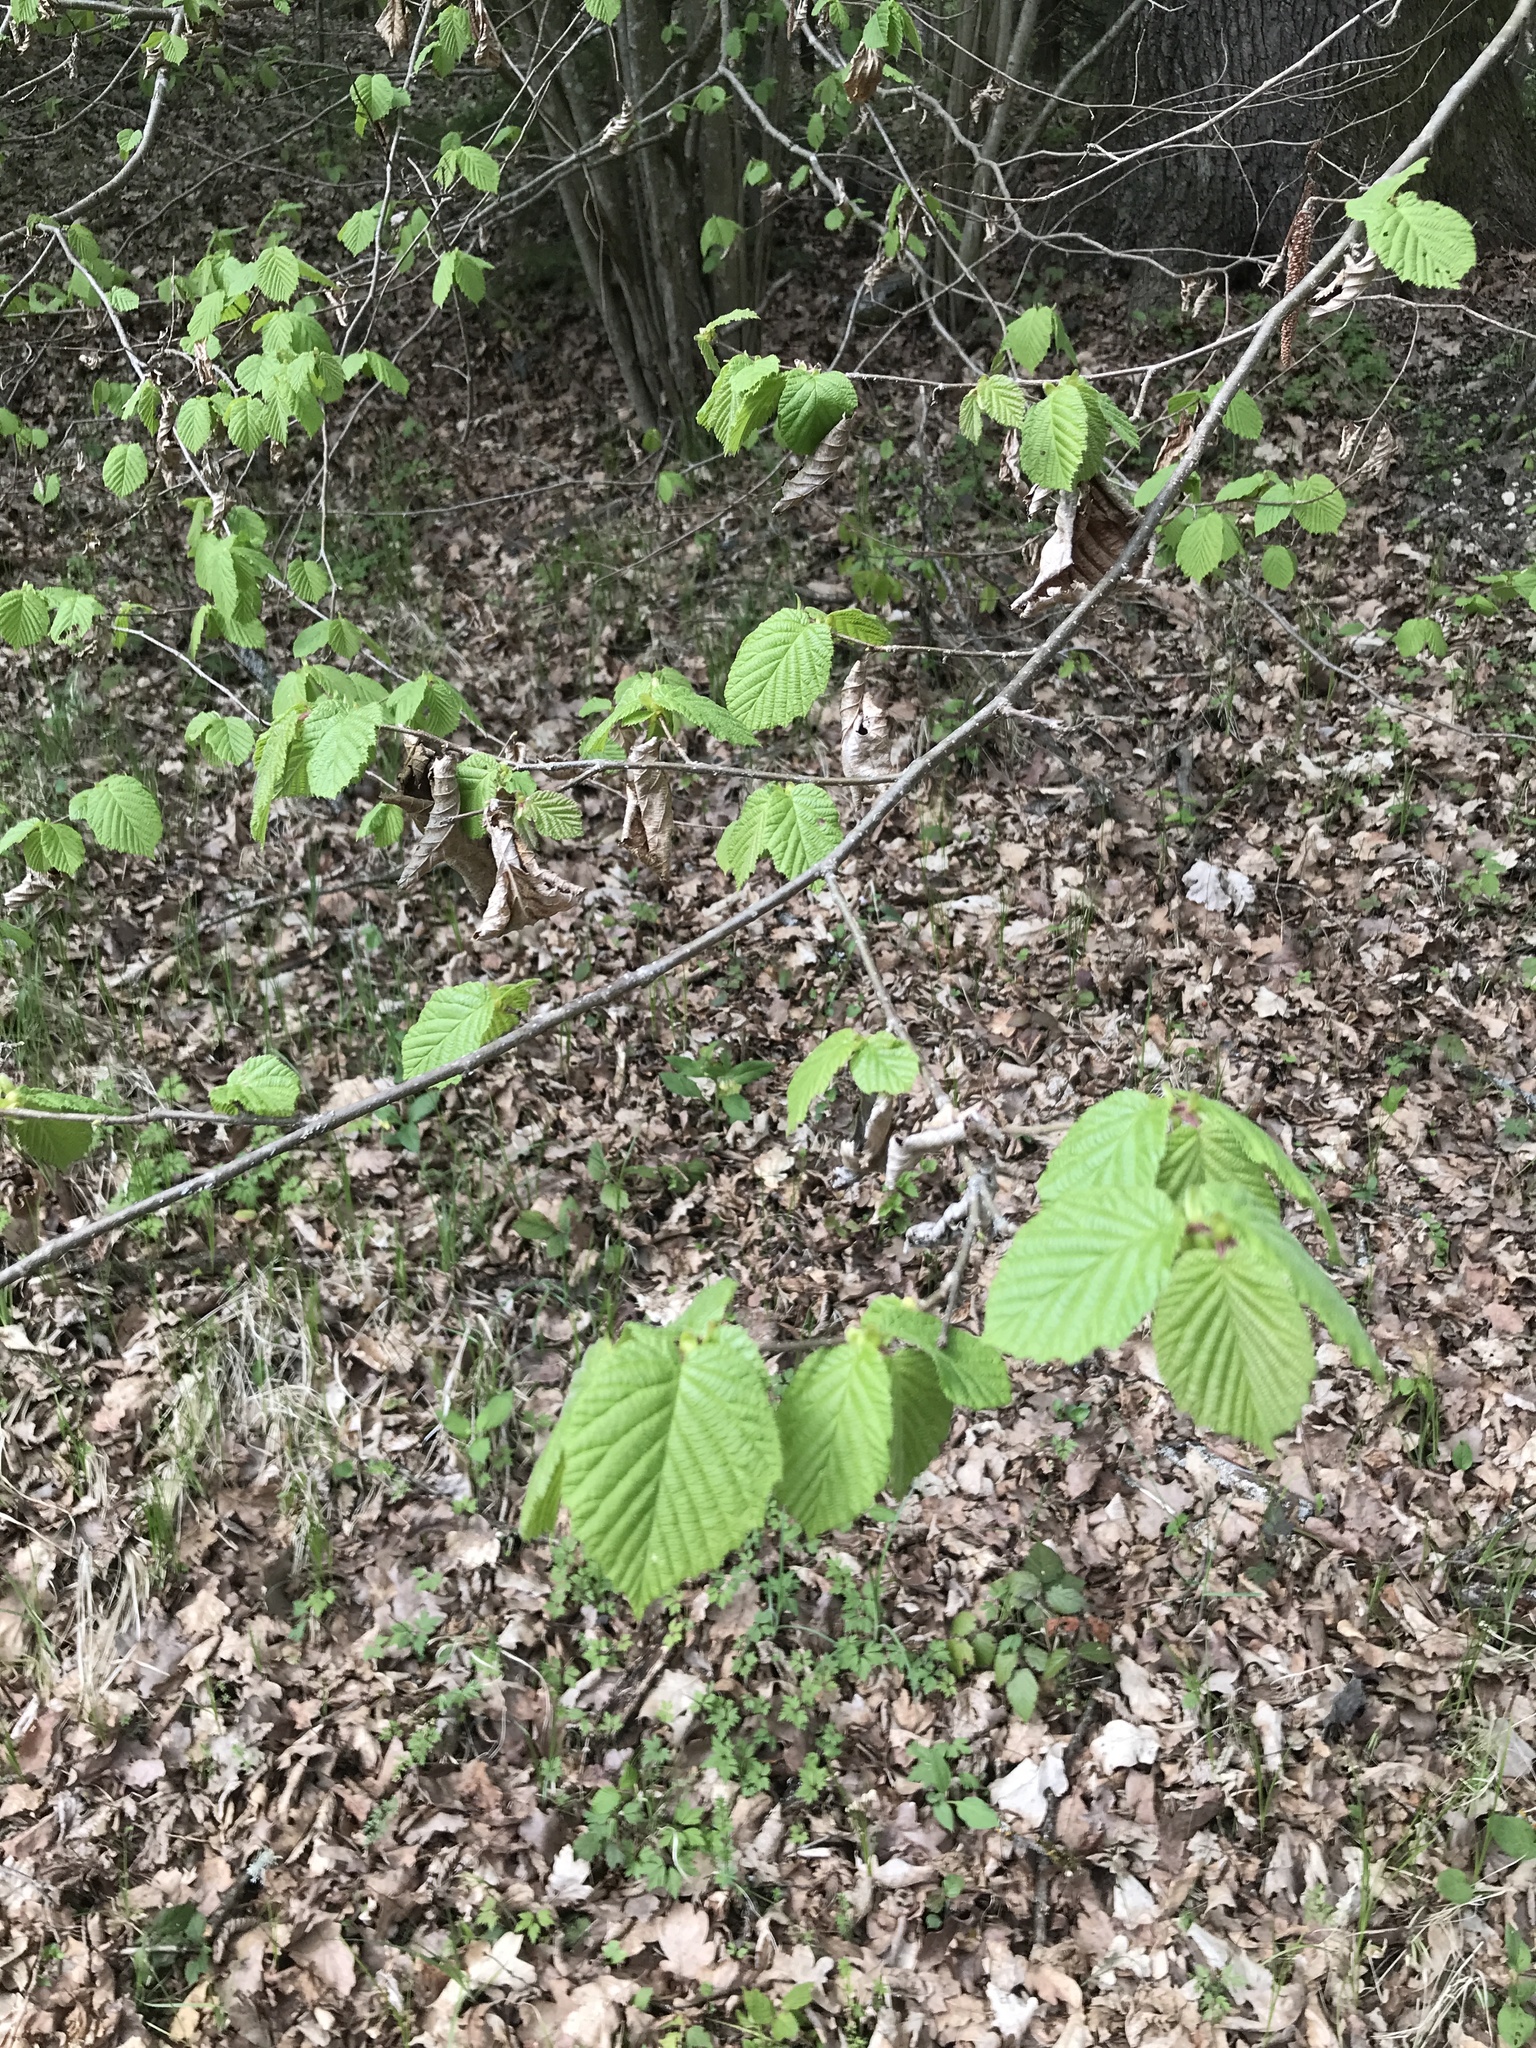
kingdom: Plantae
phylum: Tracheophyta
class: Magnoliopsida
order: Fagales
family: Betulaceae
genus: Corylus
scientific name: Corylus avellana
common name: European hazel
